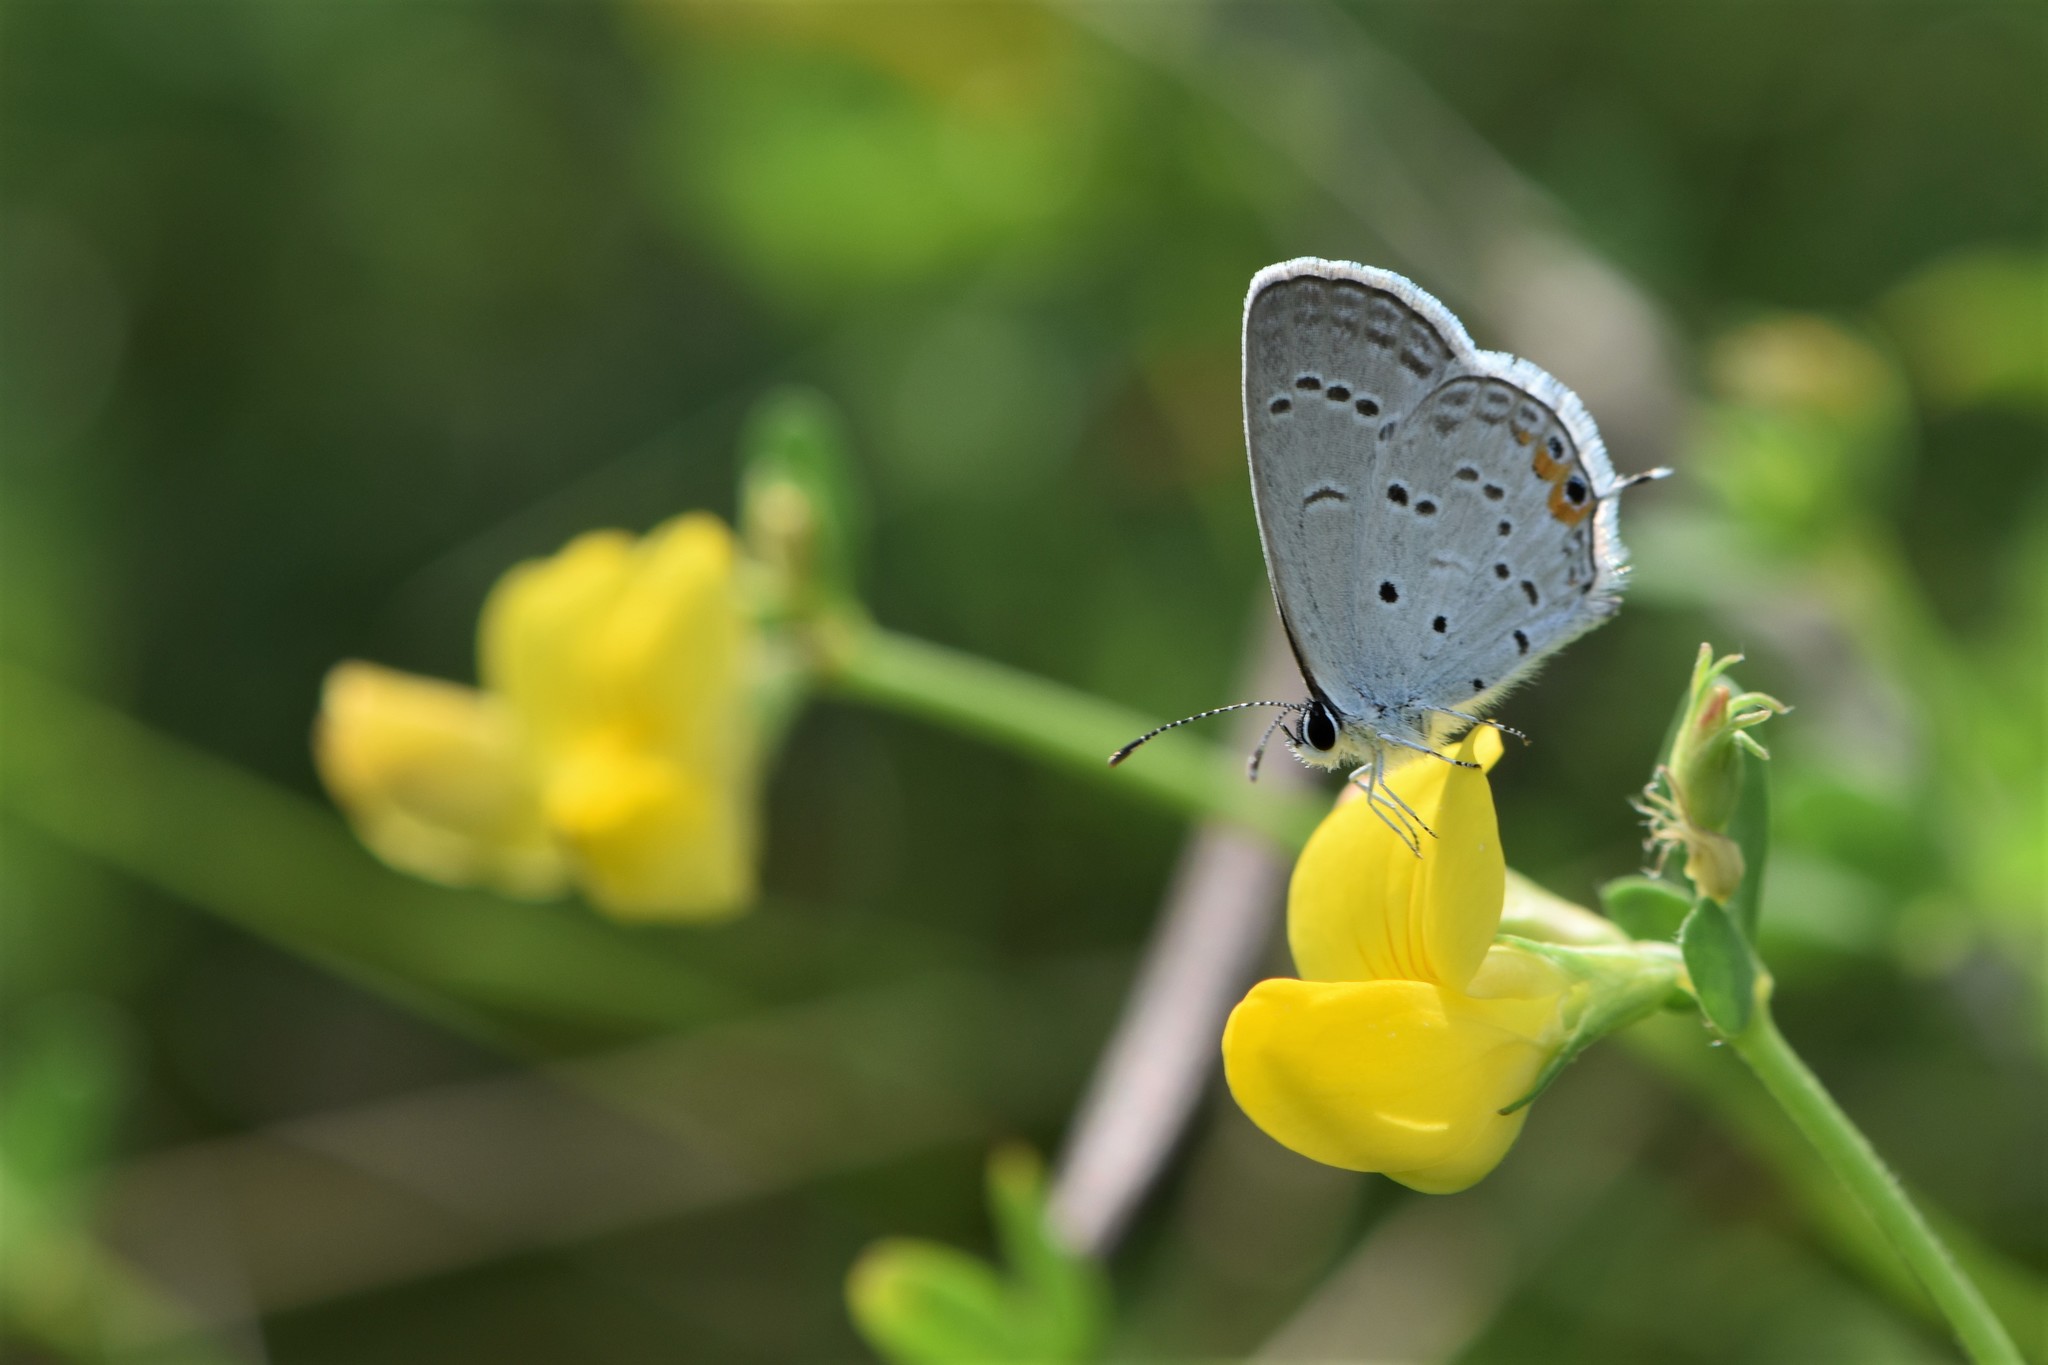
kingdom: Animalia
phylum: Arthropoda
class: Insecta
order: Lepidoptera
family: Lycaenidae
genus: Elkalyce
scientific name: Elkalyce comyntas
